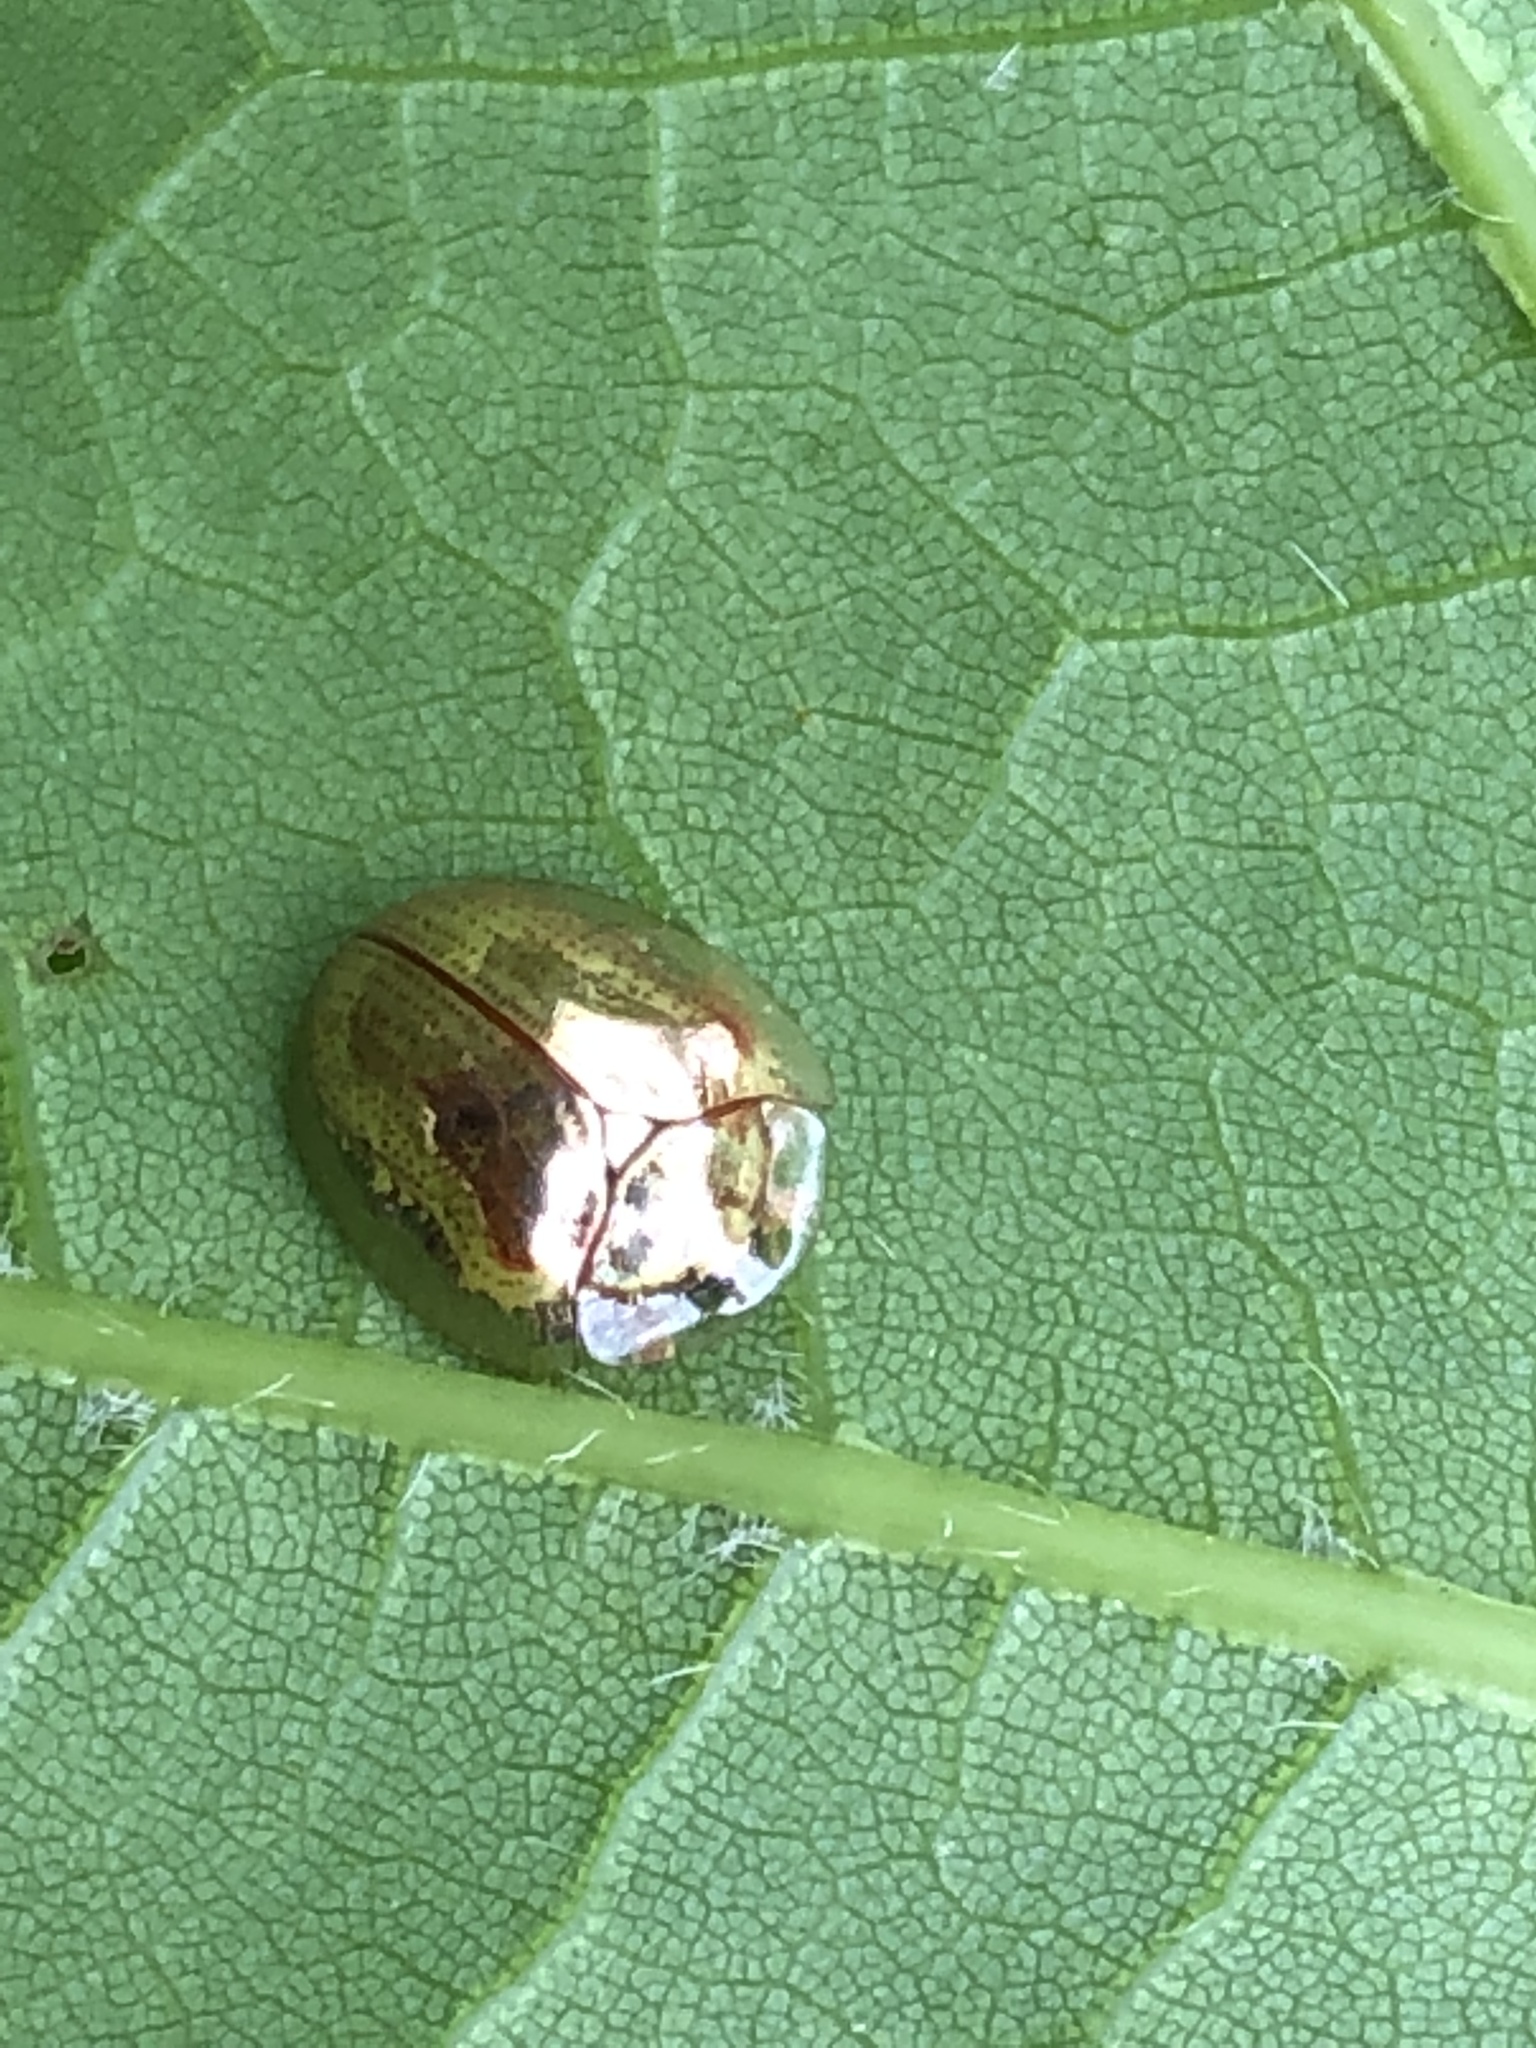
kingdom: Animalia
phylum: Arthropoda
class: Insecta
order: Coleoptera
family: Chrysomelidae
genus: Charidotella
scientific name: Charidotella sexpunctata
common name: Golden tortoise beetle
